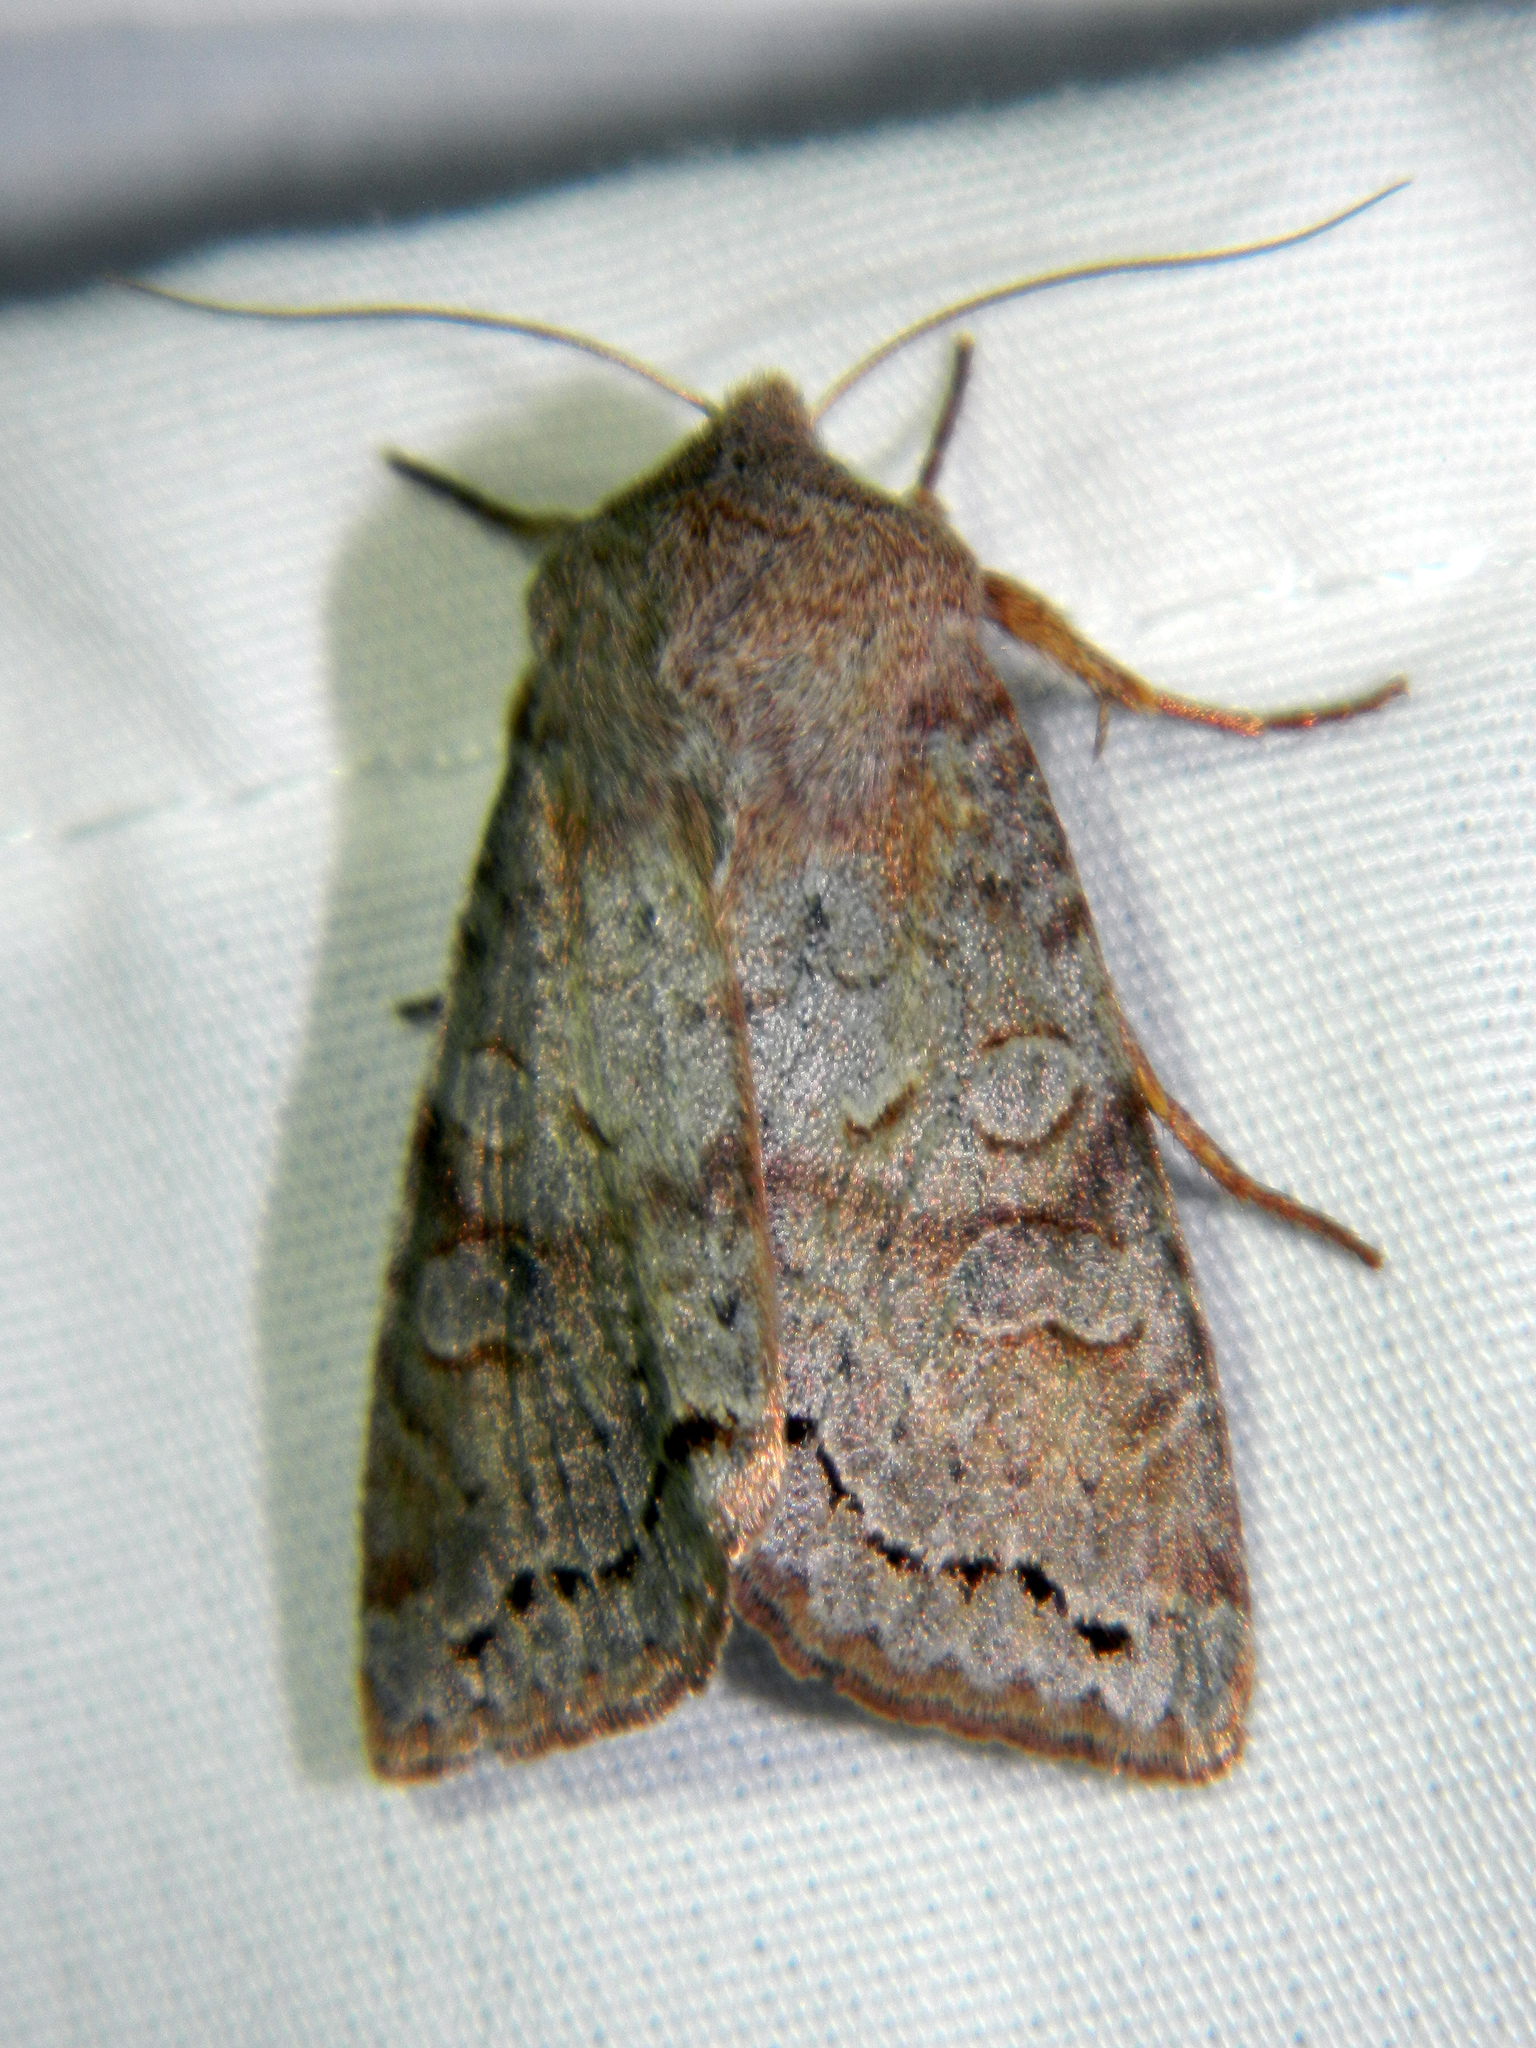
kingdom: Animalia
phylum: Arthropoda
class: Insecta
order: Lepidoptera
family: Noctuidae
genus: Orthosia
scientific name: Orthosia revicta
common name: Rusty whitesided caterpillar
